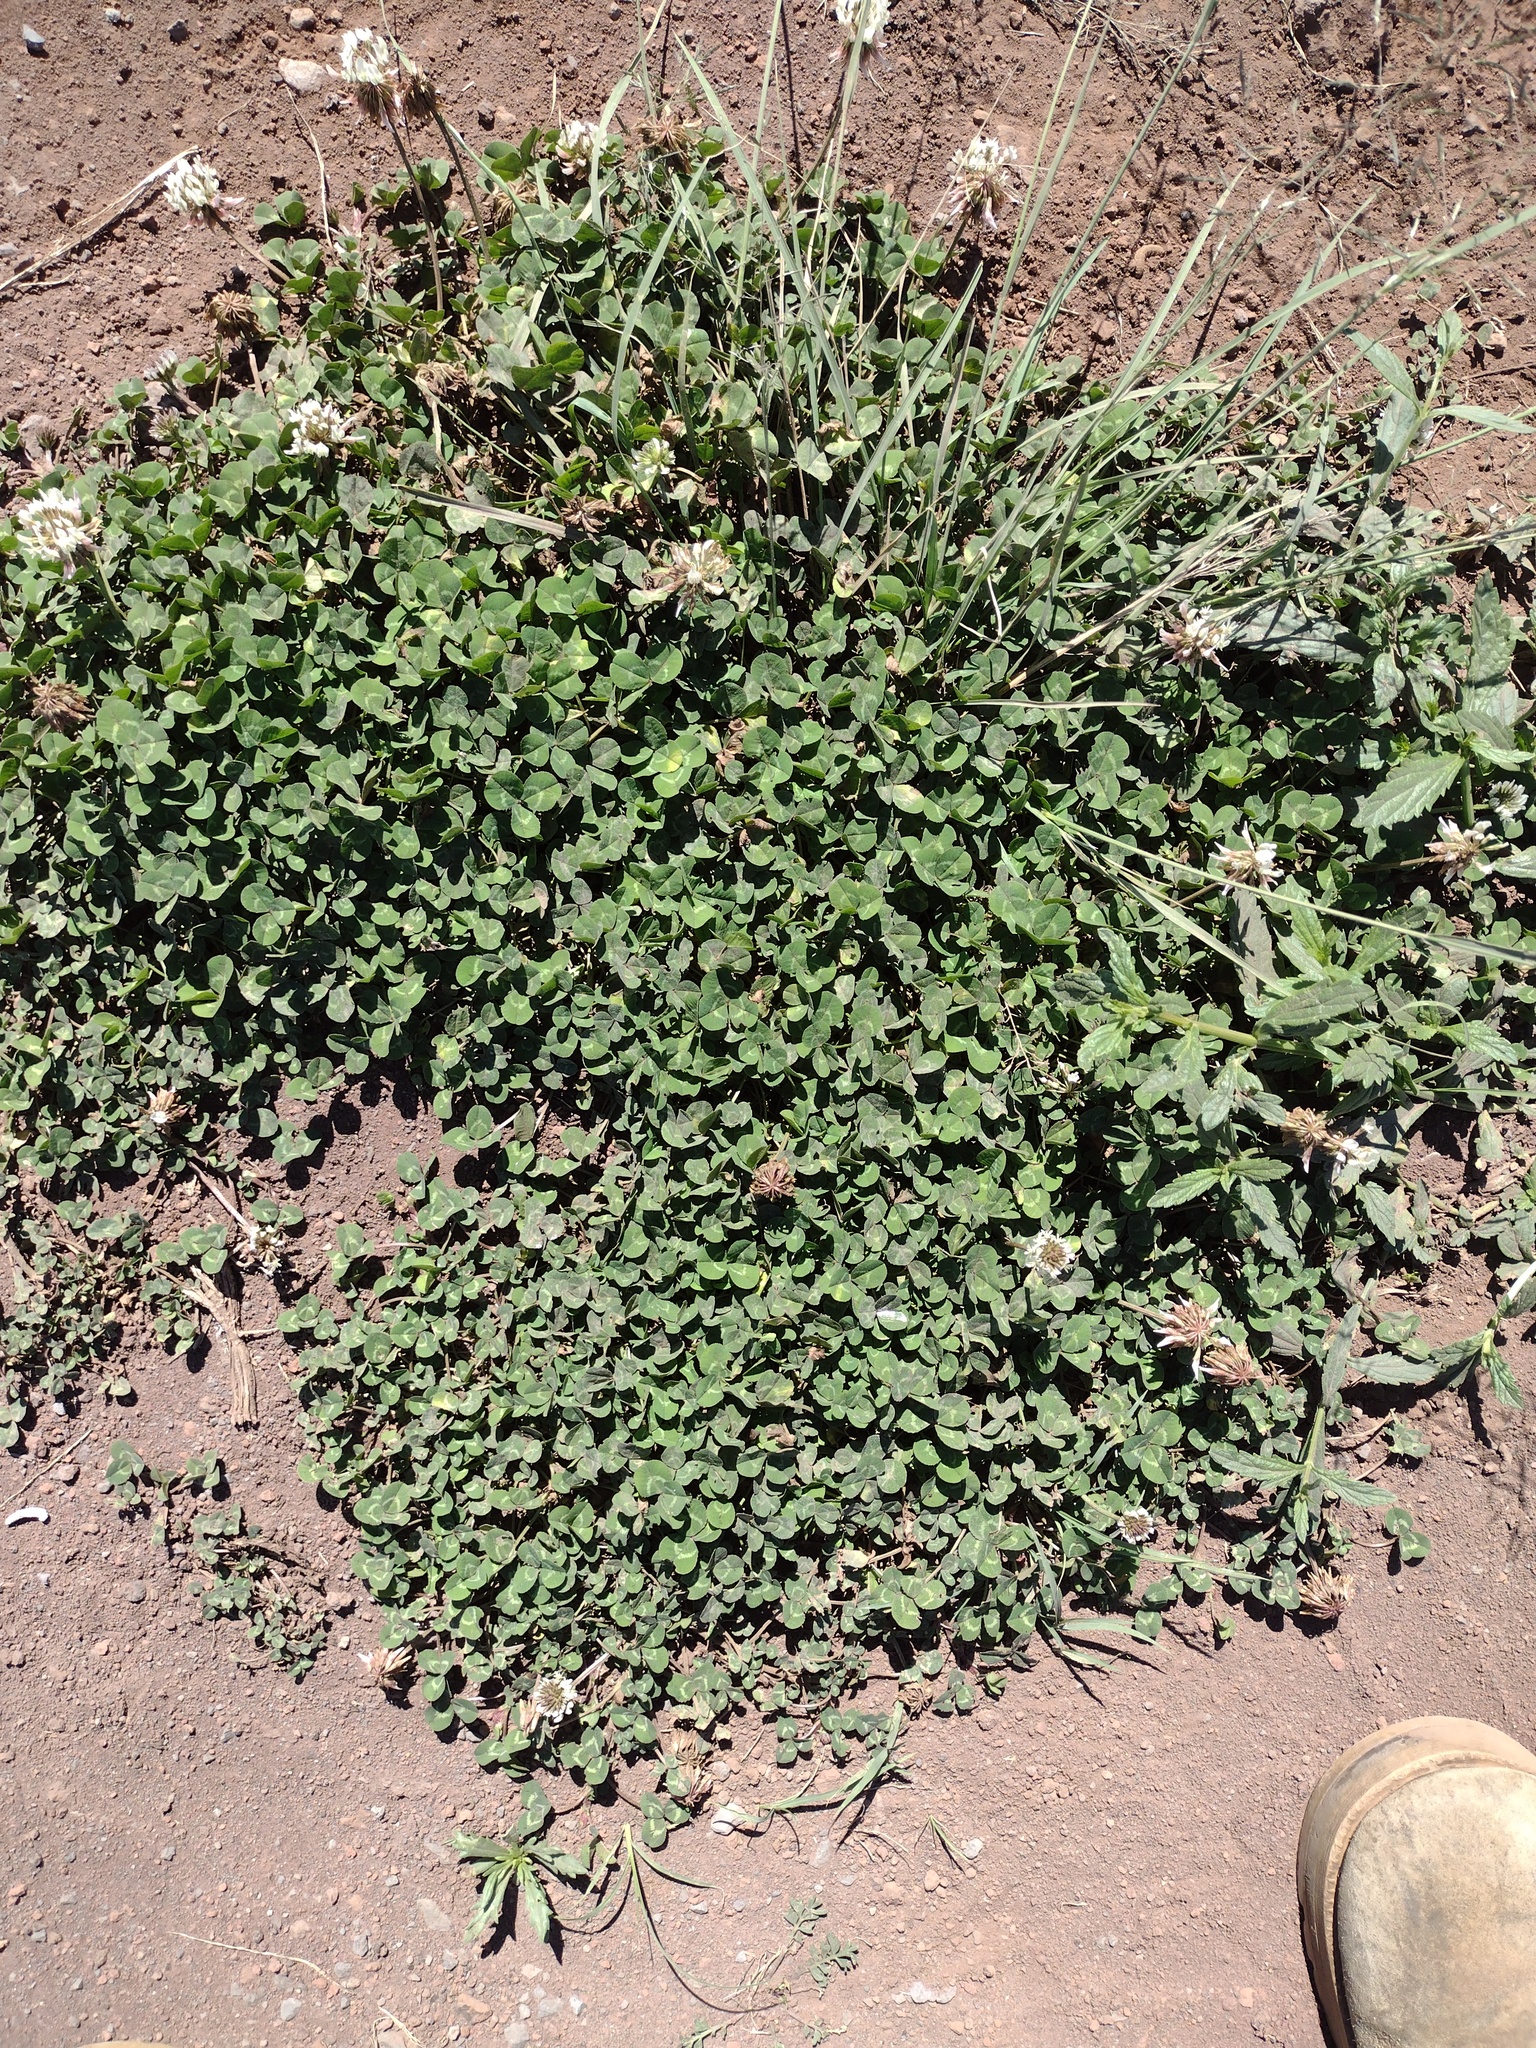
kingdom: Plantae
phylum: Tracheophyta
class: Magnoliopsida
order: Fabales
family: Fabaceae
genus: Trifolium
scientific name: Trifolium repens
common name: White clover
